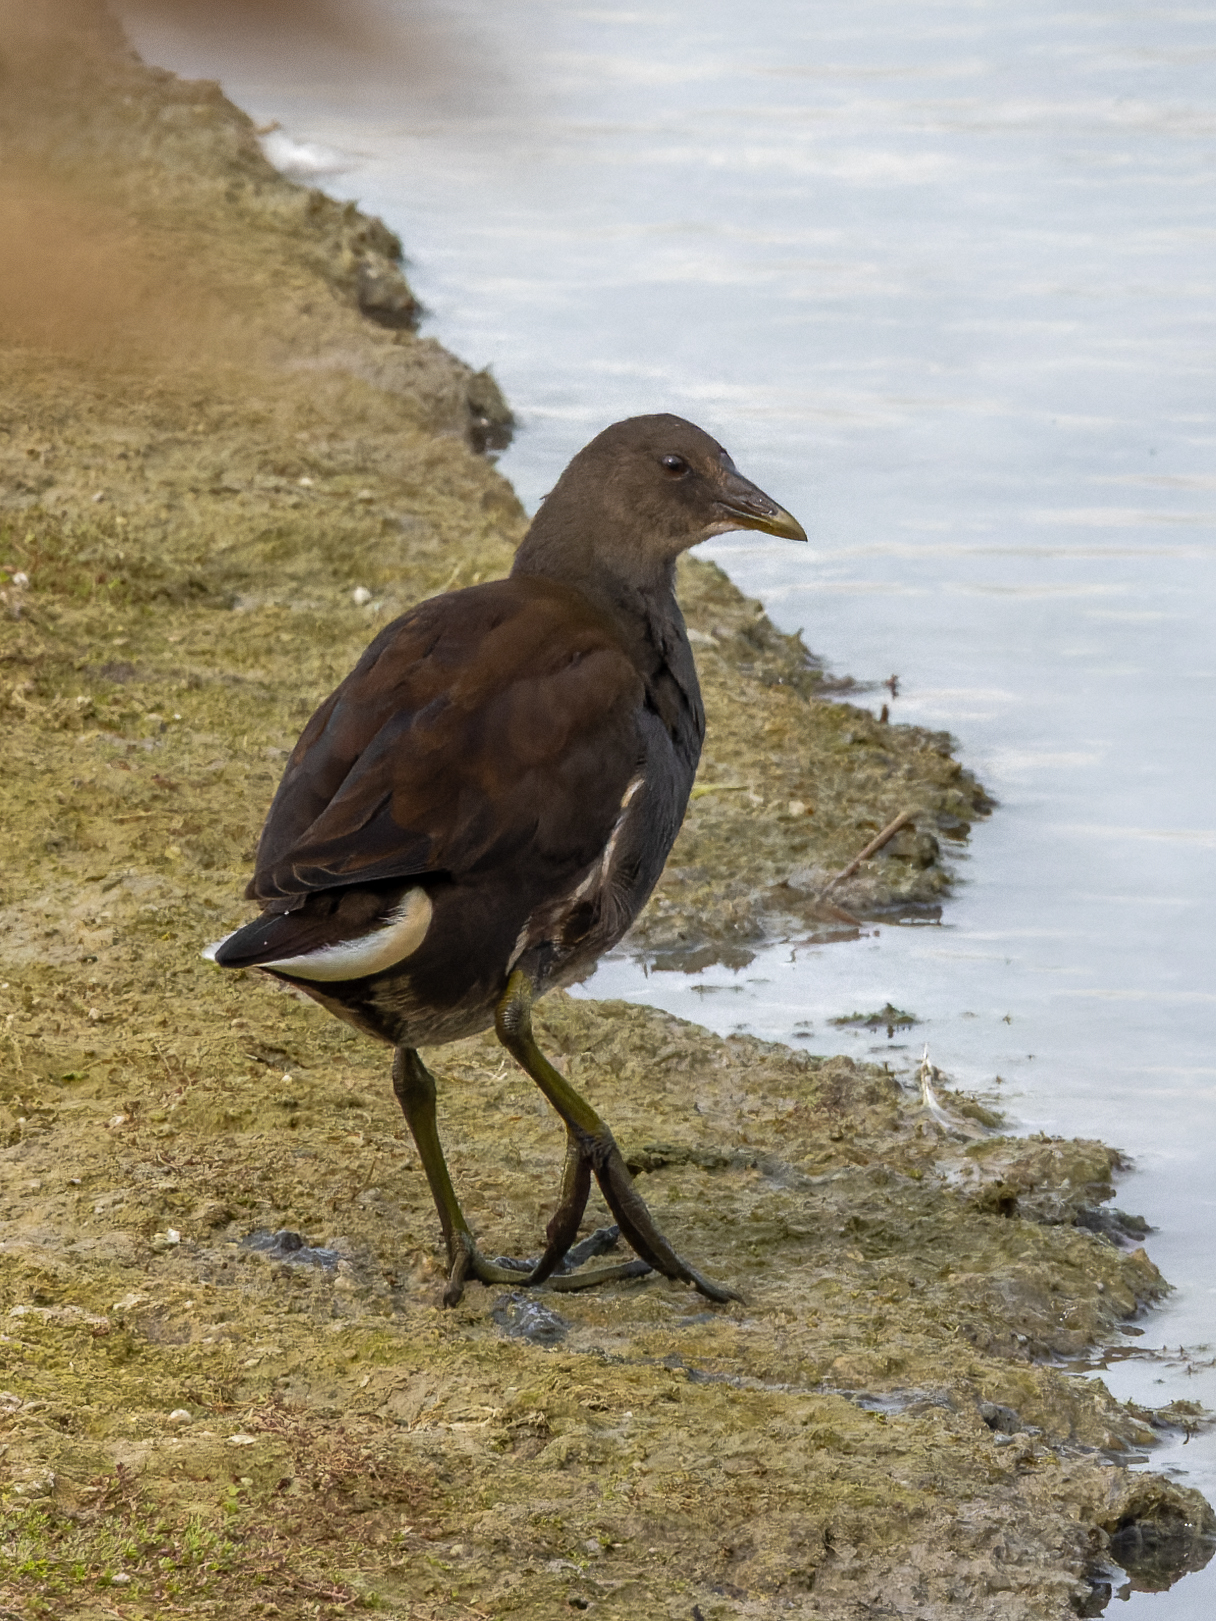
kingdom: Animalia
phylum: Chordata
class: Aves
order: Gruiformes
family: Rallidae
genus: Gallinula
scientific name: Gallinula chloropus
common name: Common moorhen
